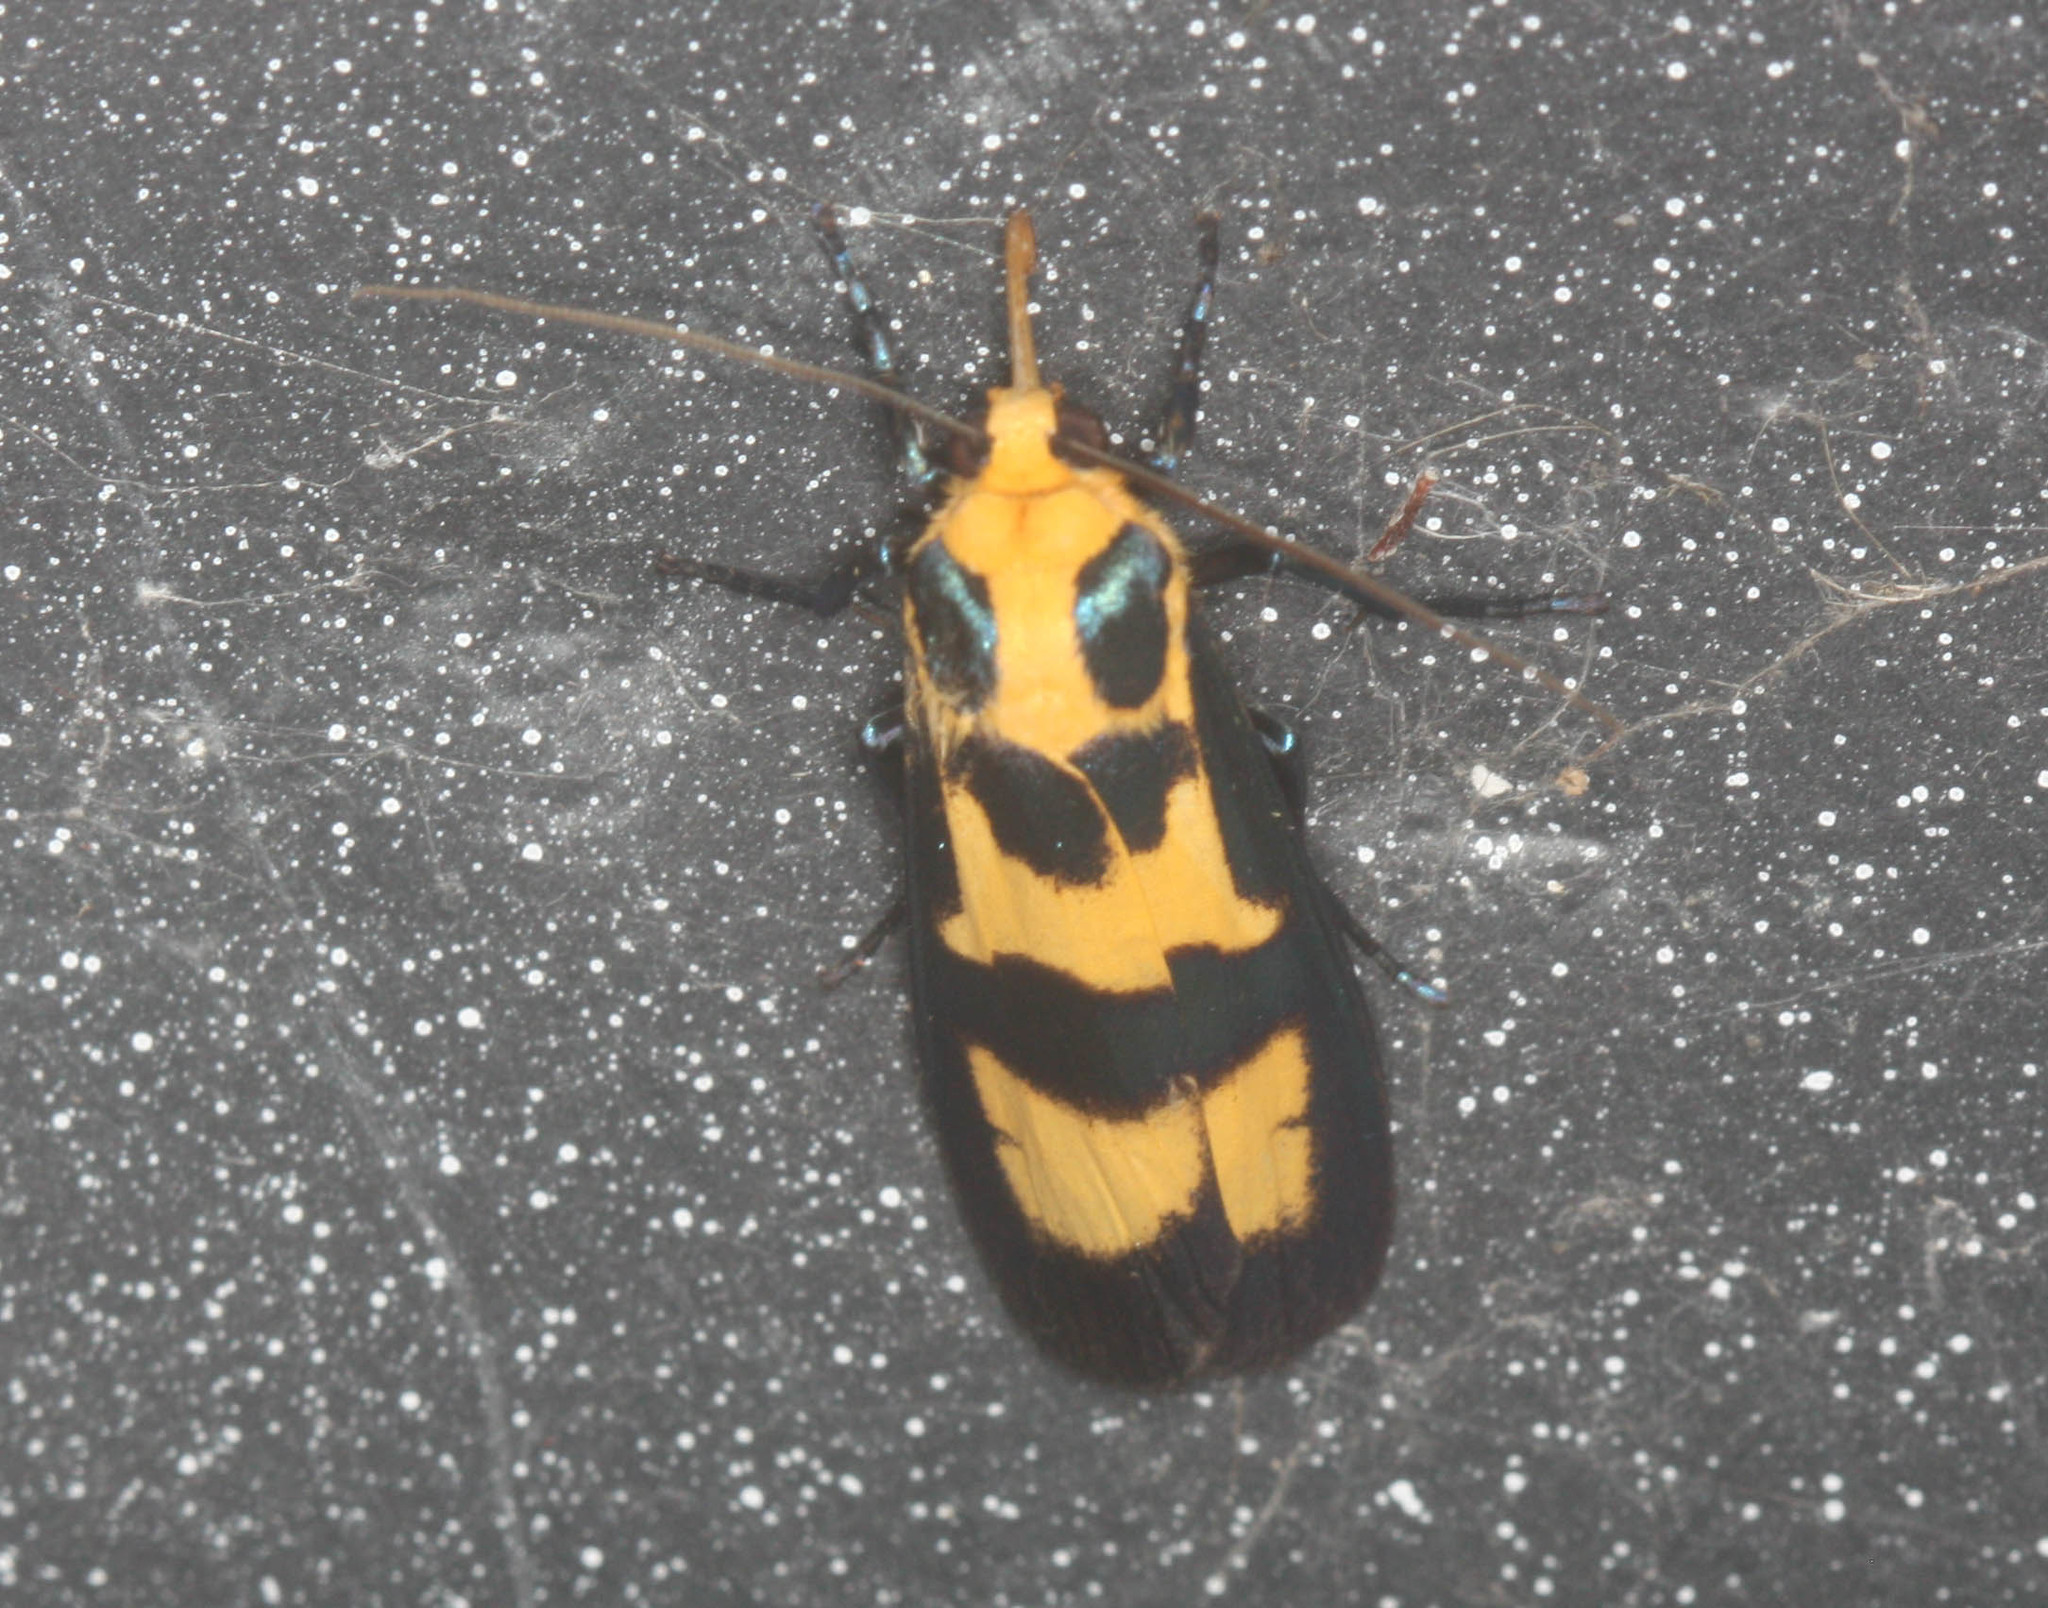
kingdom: Animalia
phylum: Arthropoda
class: Insecta
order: Lepidoptera
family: Erebidae
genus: Chrysaeglia
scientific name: Chrysaeglia magnifica
